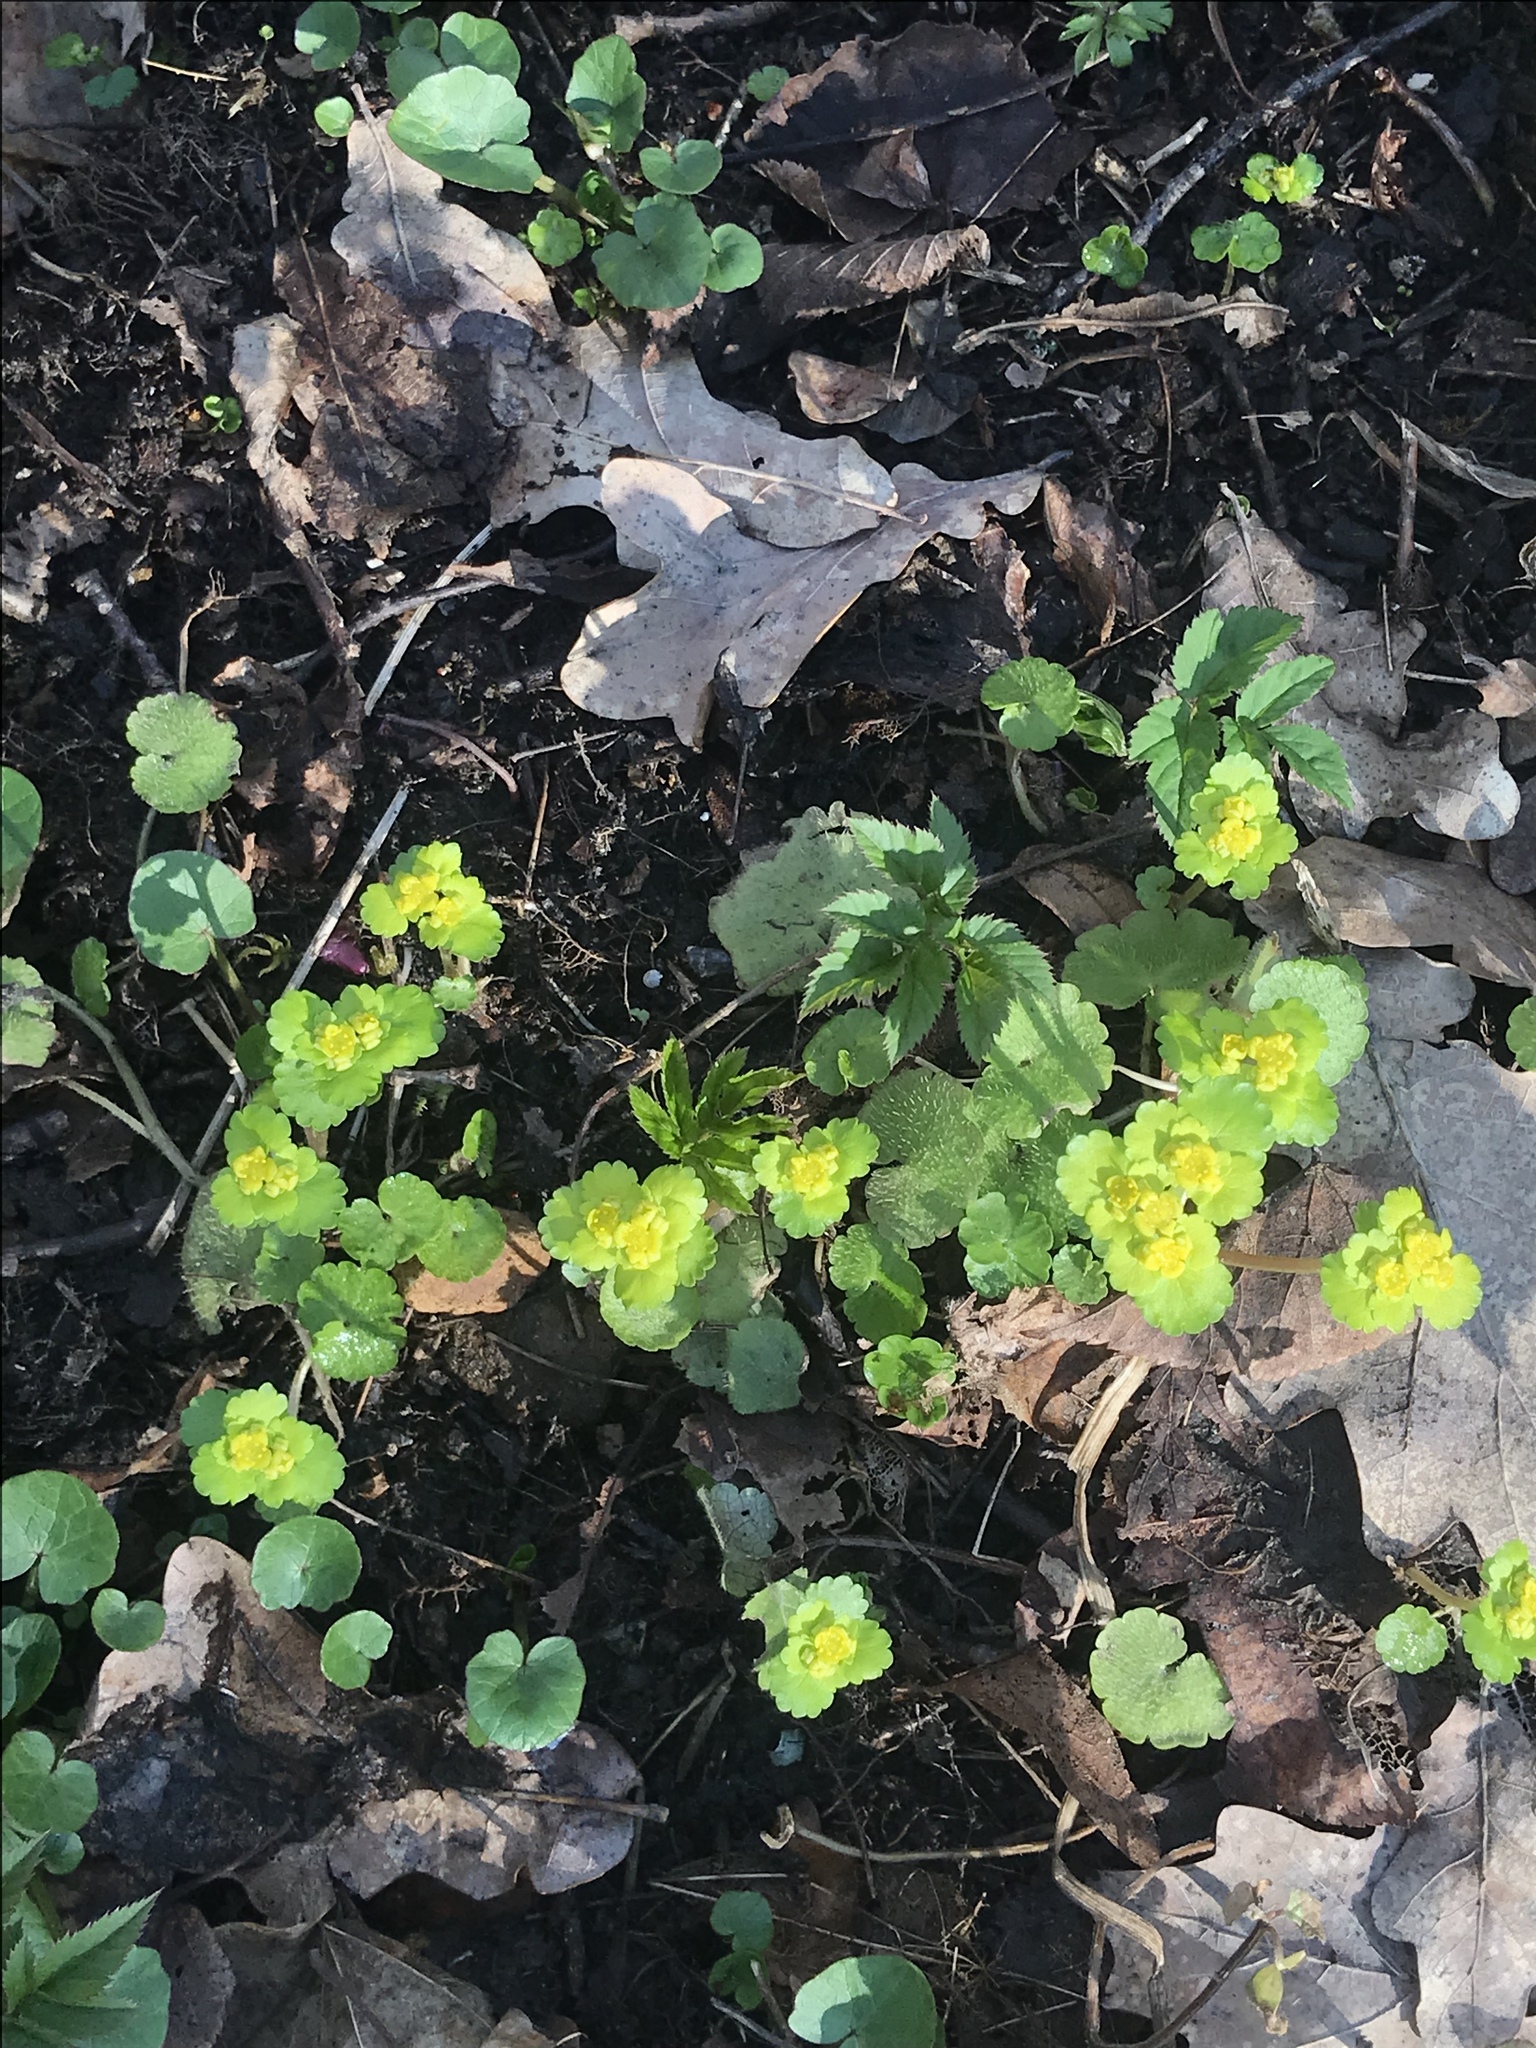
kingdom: Plantae
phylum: Tracheophyta
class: Magnoliopsida
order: Saxifragales
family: Saxifragaceae
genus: Chrysosplenium
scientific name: Chrysosplenium alternifolium
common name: Alternate-leaved golden-saxifrage
